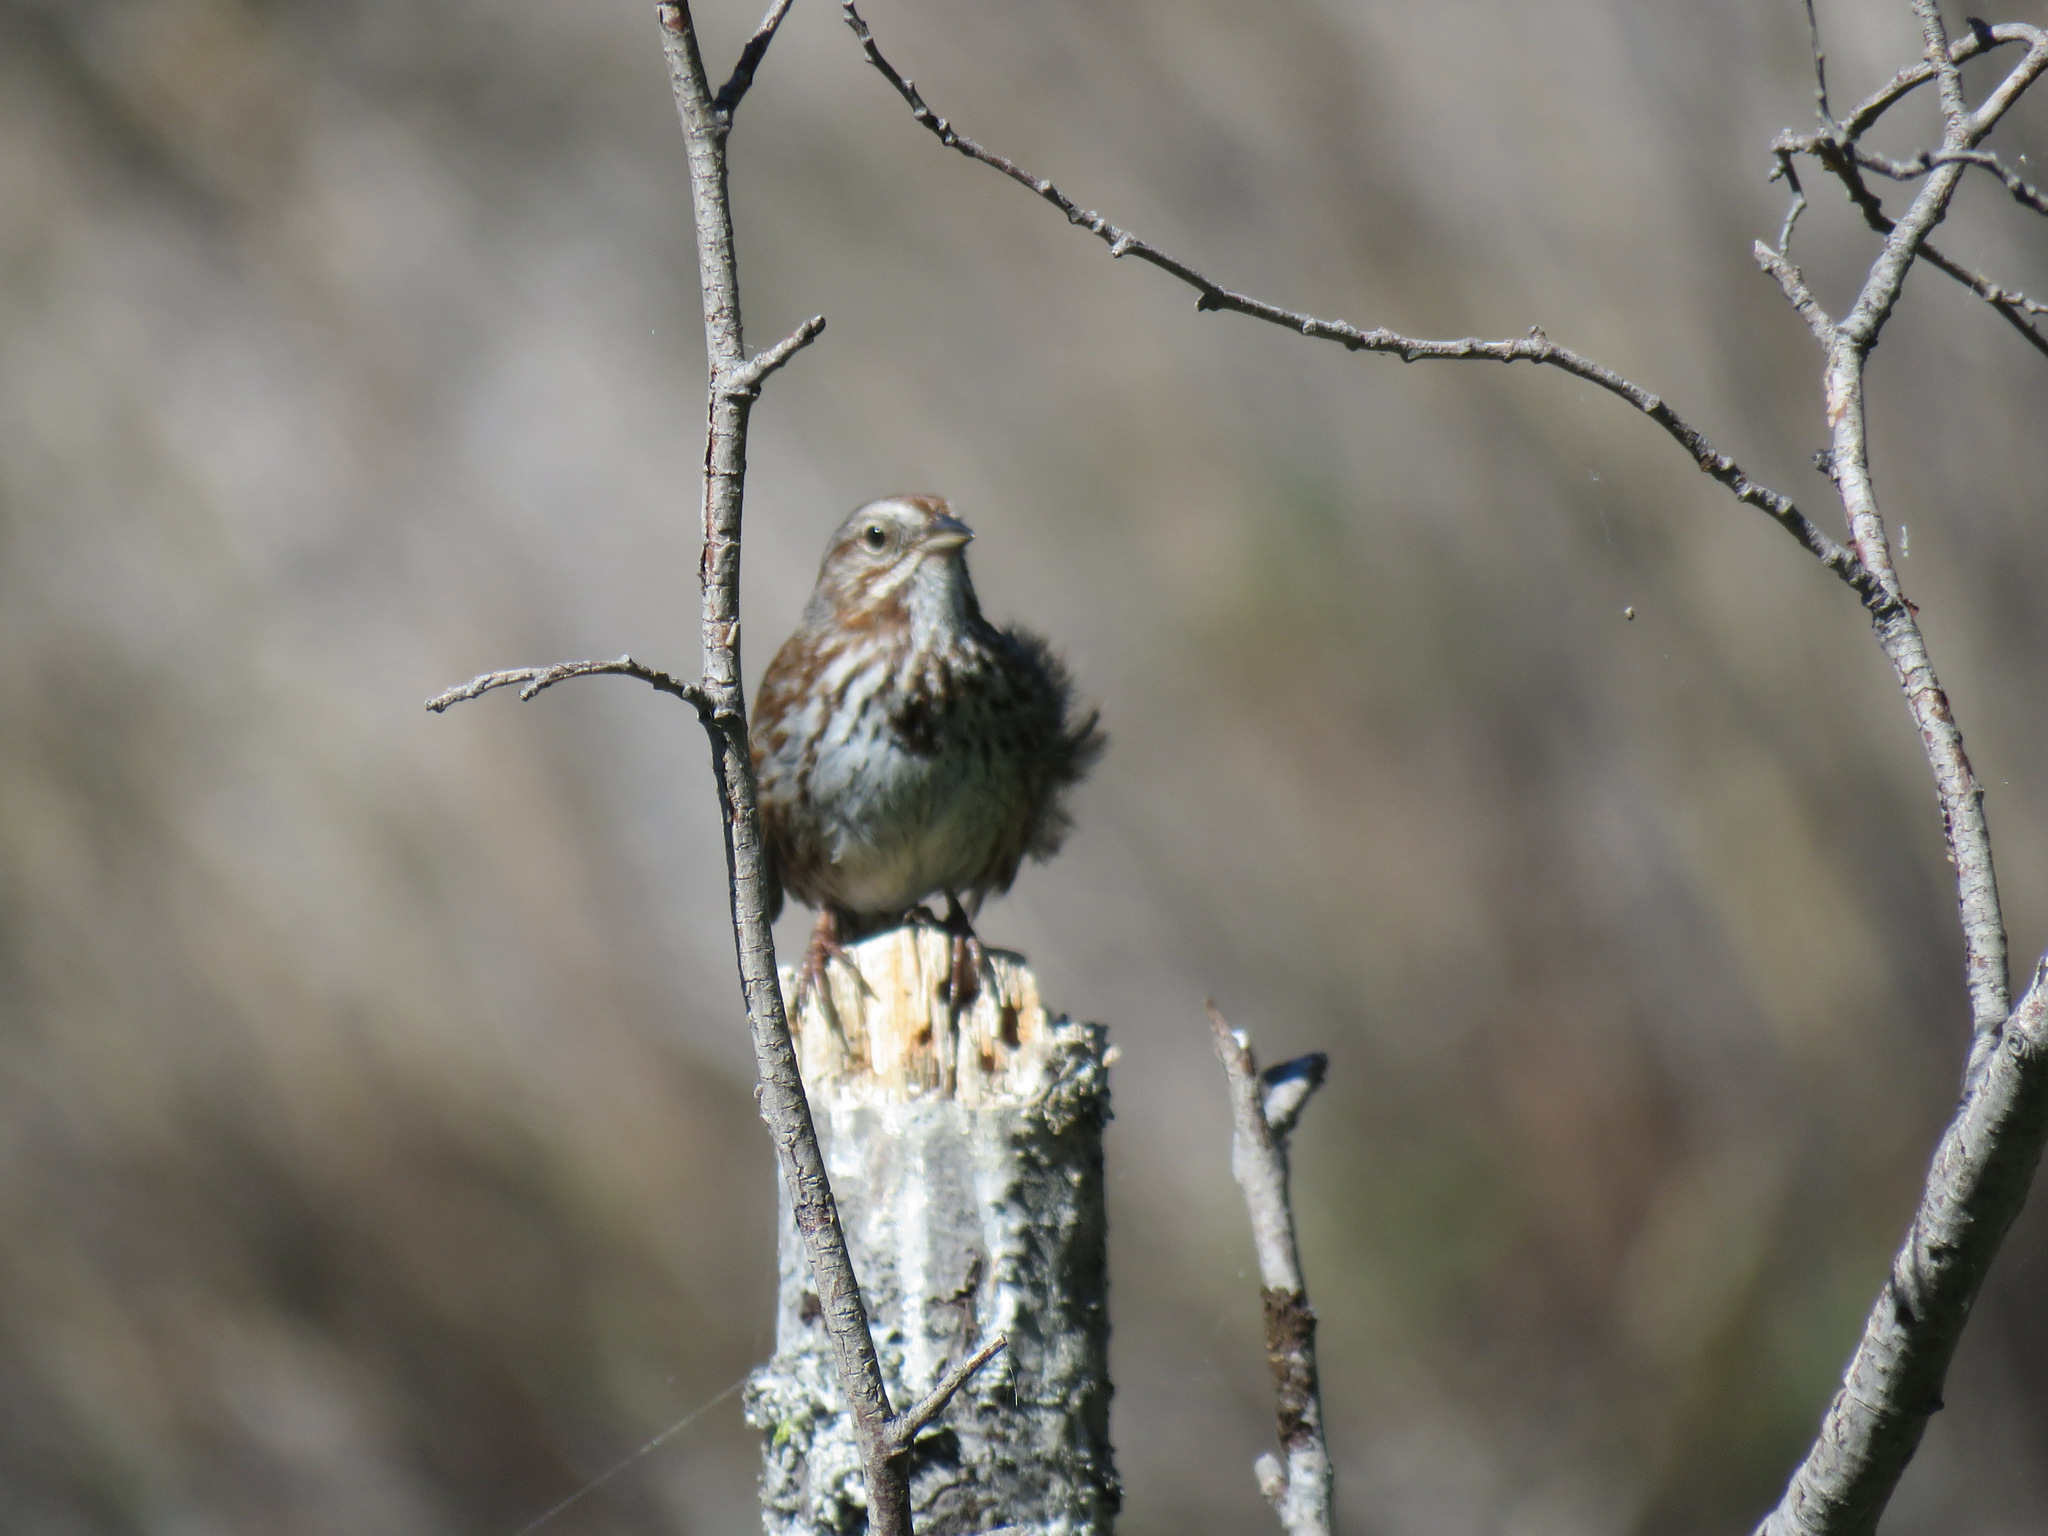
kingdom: Animalia
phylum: Chordata
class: Aves
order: Passeriformes
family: Passerellidae
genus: Melospiza
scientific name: Melospiza melodia
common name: Song sparrow
